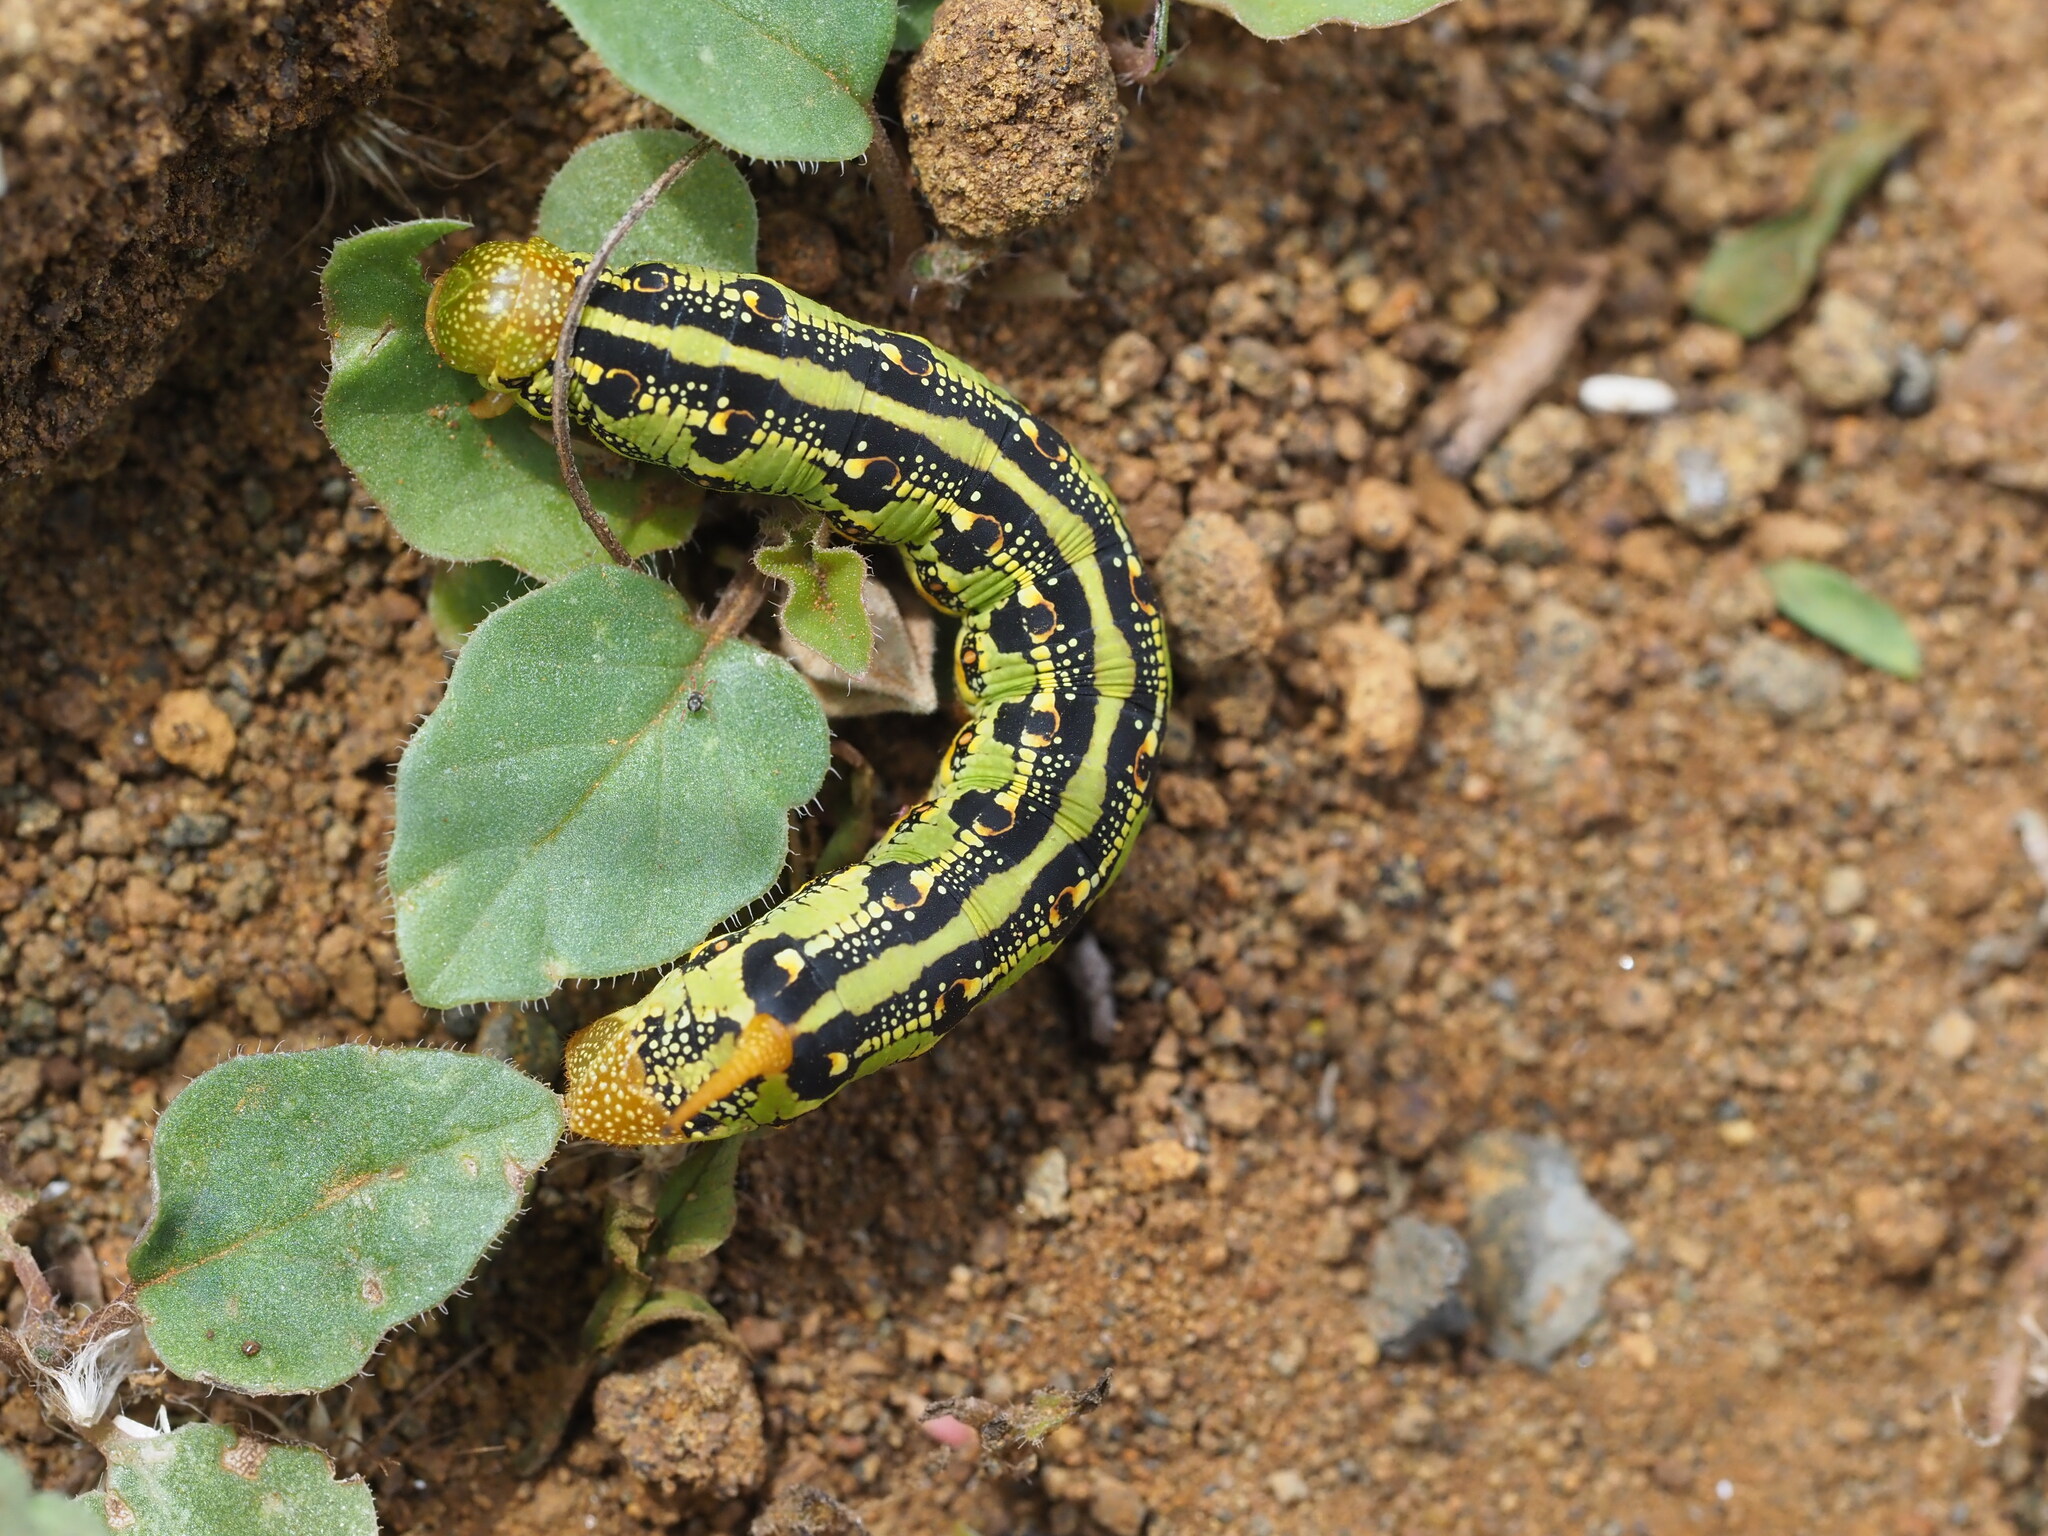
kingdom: Animalia
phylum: Arthropoda
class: Insecta
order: Lepidoptera
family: Sphingidae
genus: Hyles
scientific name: Hyles lineata
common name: White-lined sphinx
